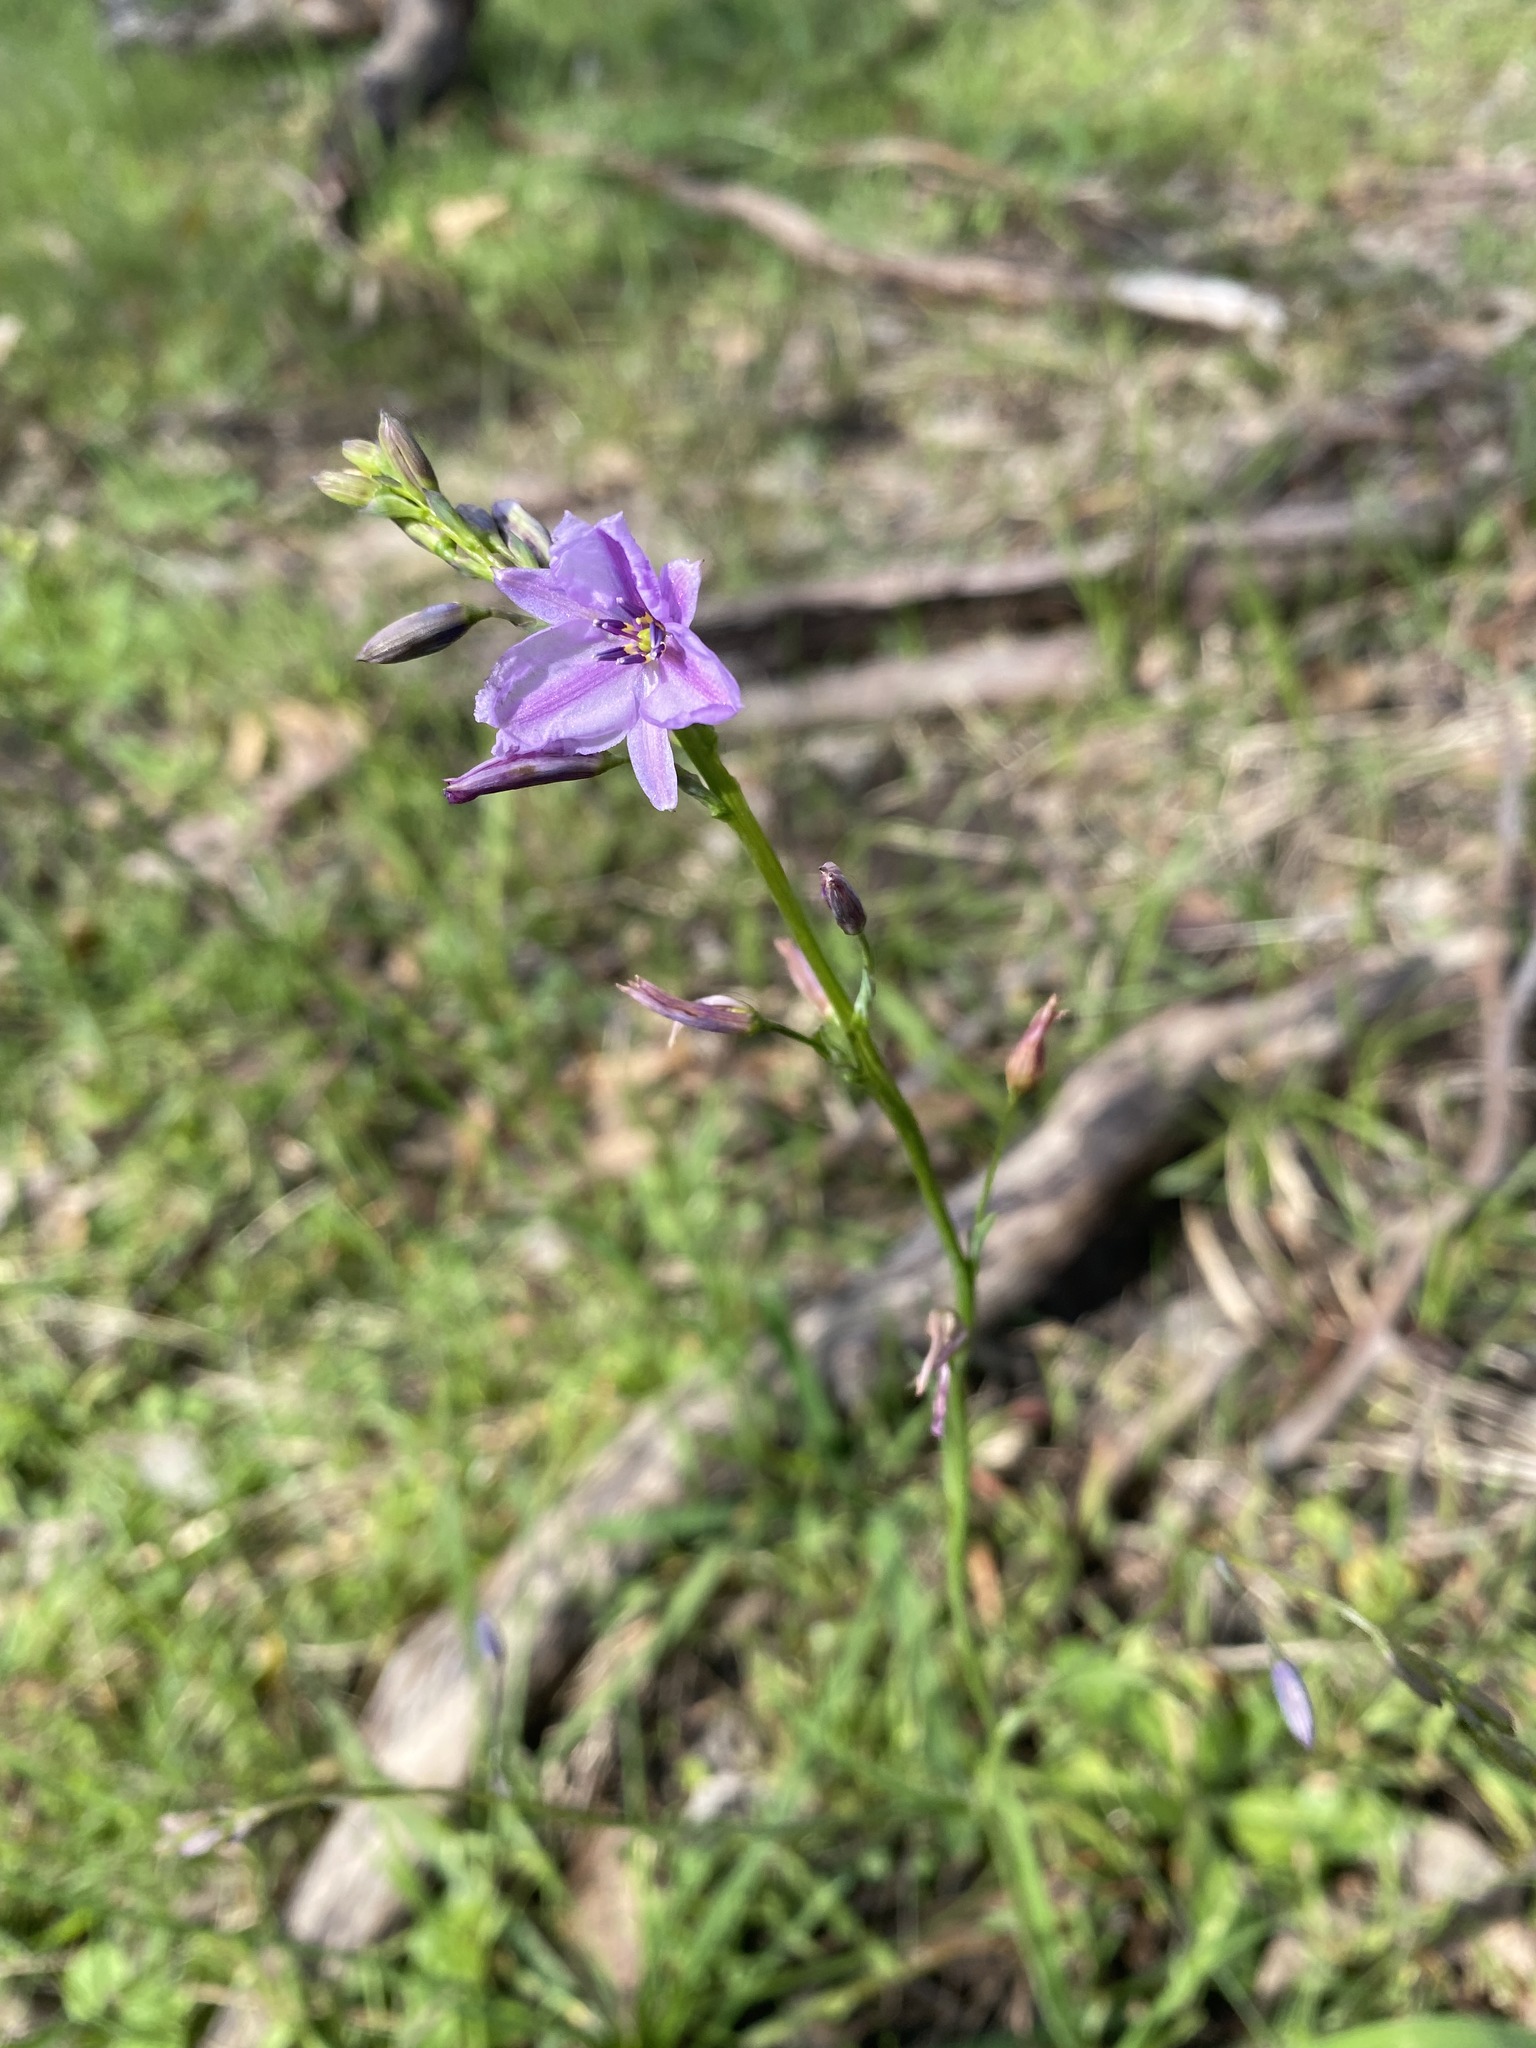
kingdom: Plantae
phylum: Tracheophyta
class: Liliopsida
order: Asparagales
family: Asparagaceae
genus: Arthropodium
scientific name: Arthropodium strictum
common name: Chocolate-lily
